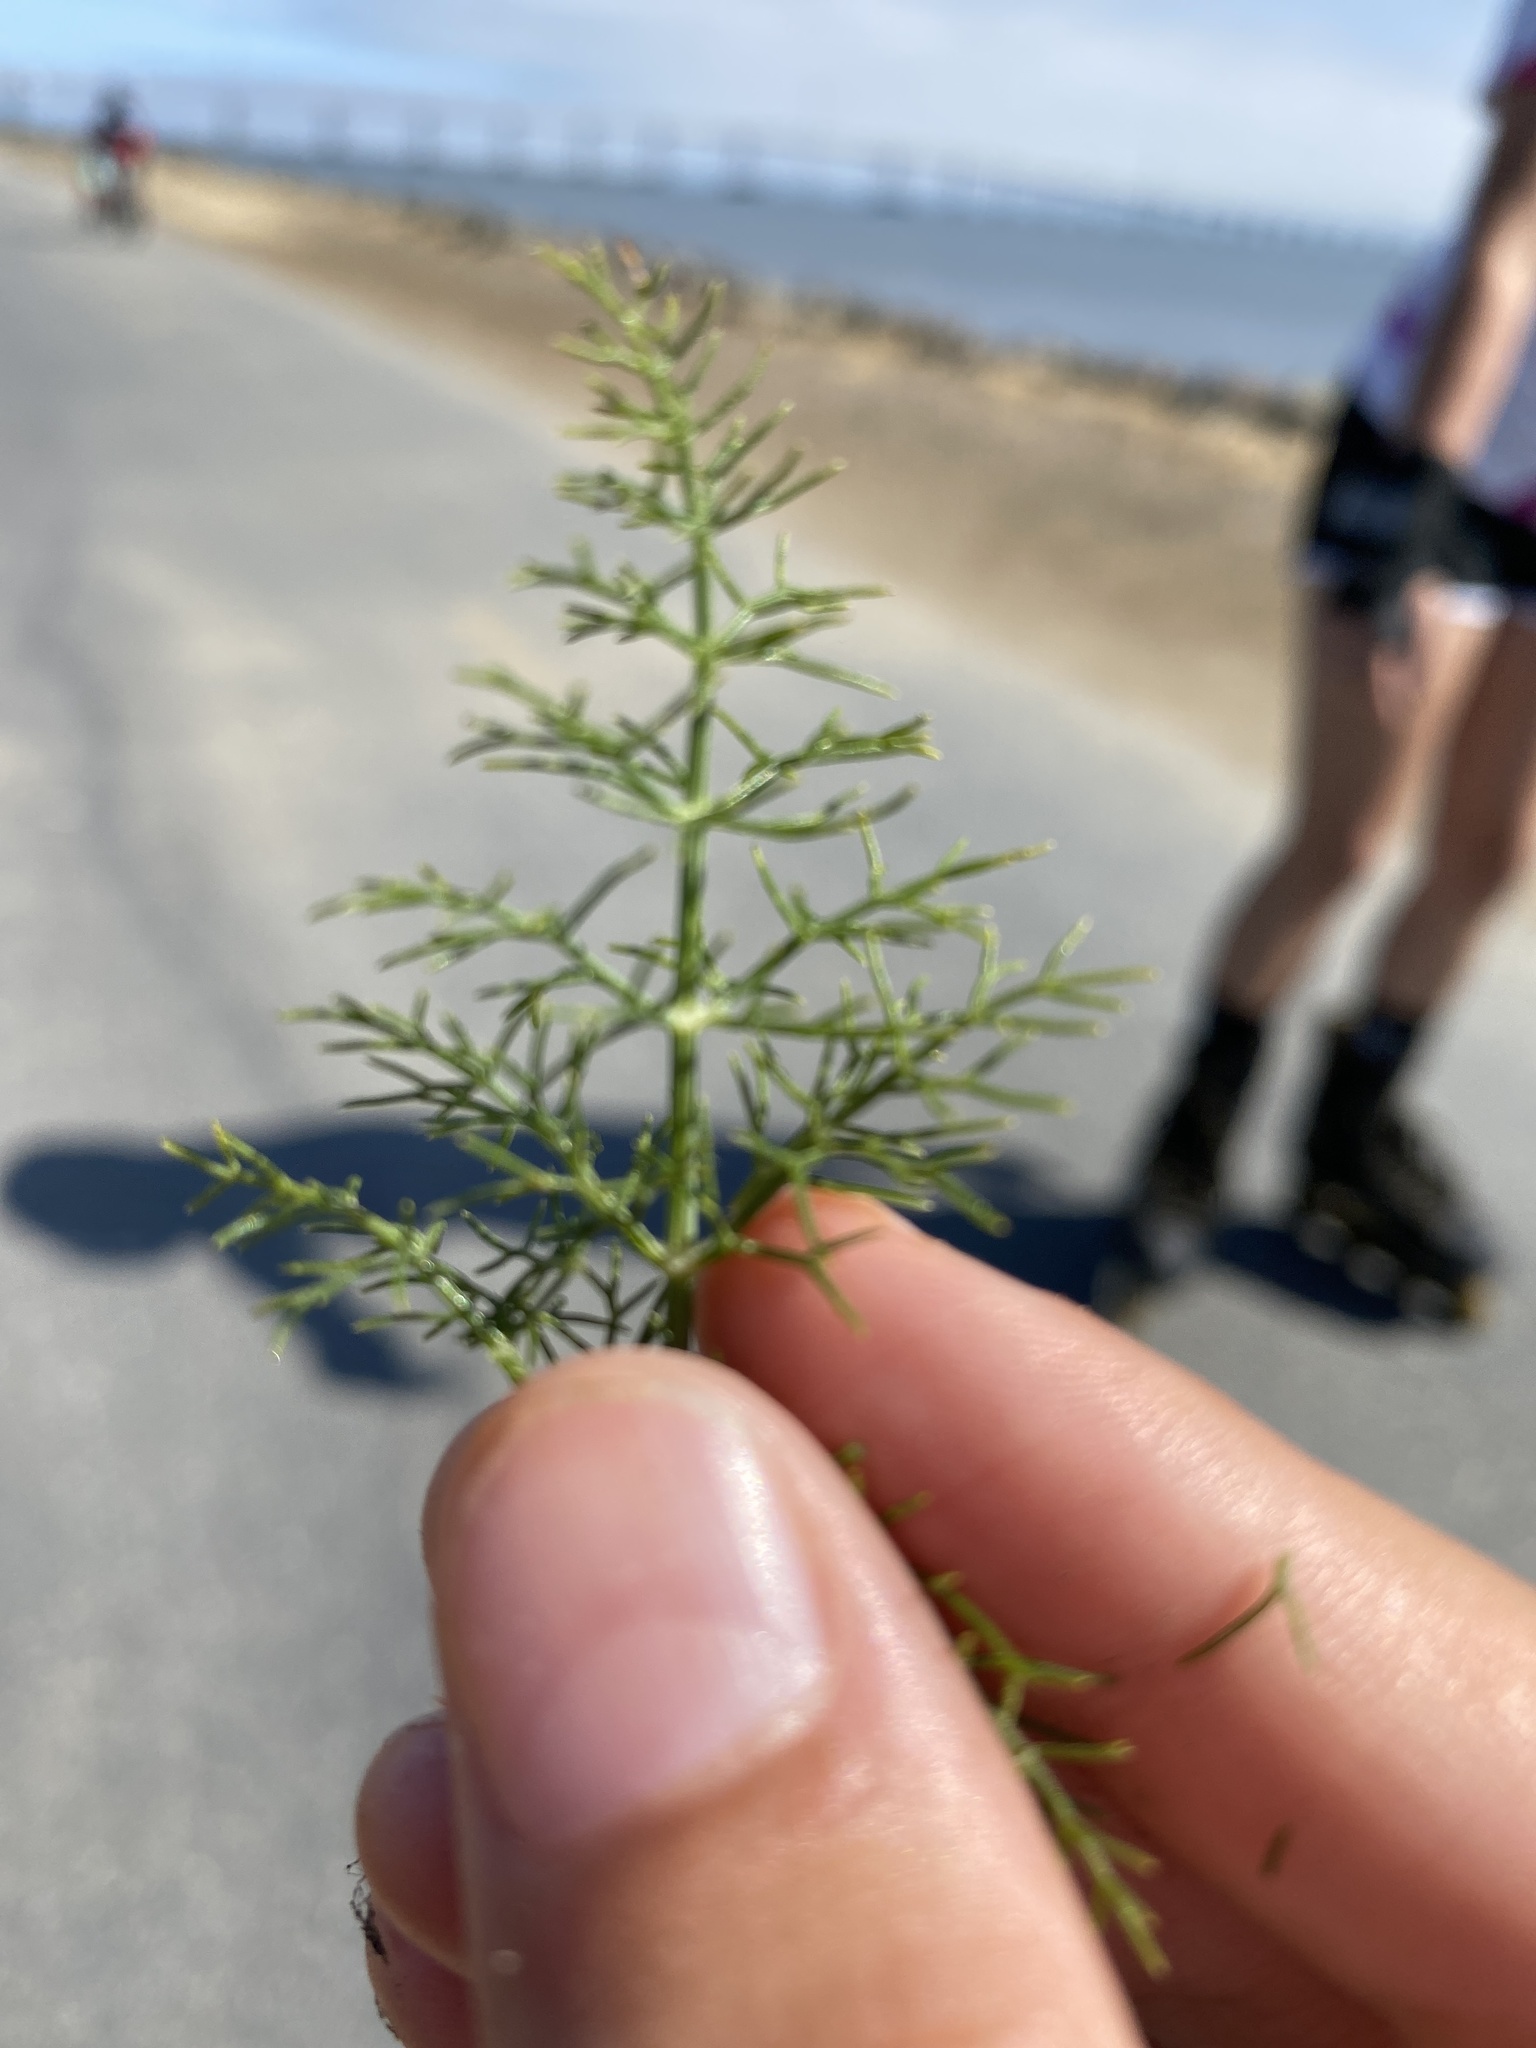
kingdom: Plantae
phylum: Tracheophyta
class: Magnoliopsida
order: Apiales
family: Apiaceae
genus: Foeniculum
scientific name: Foeniculum vulgare
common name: Fennel
